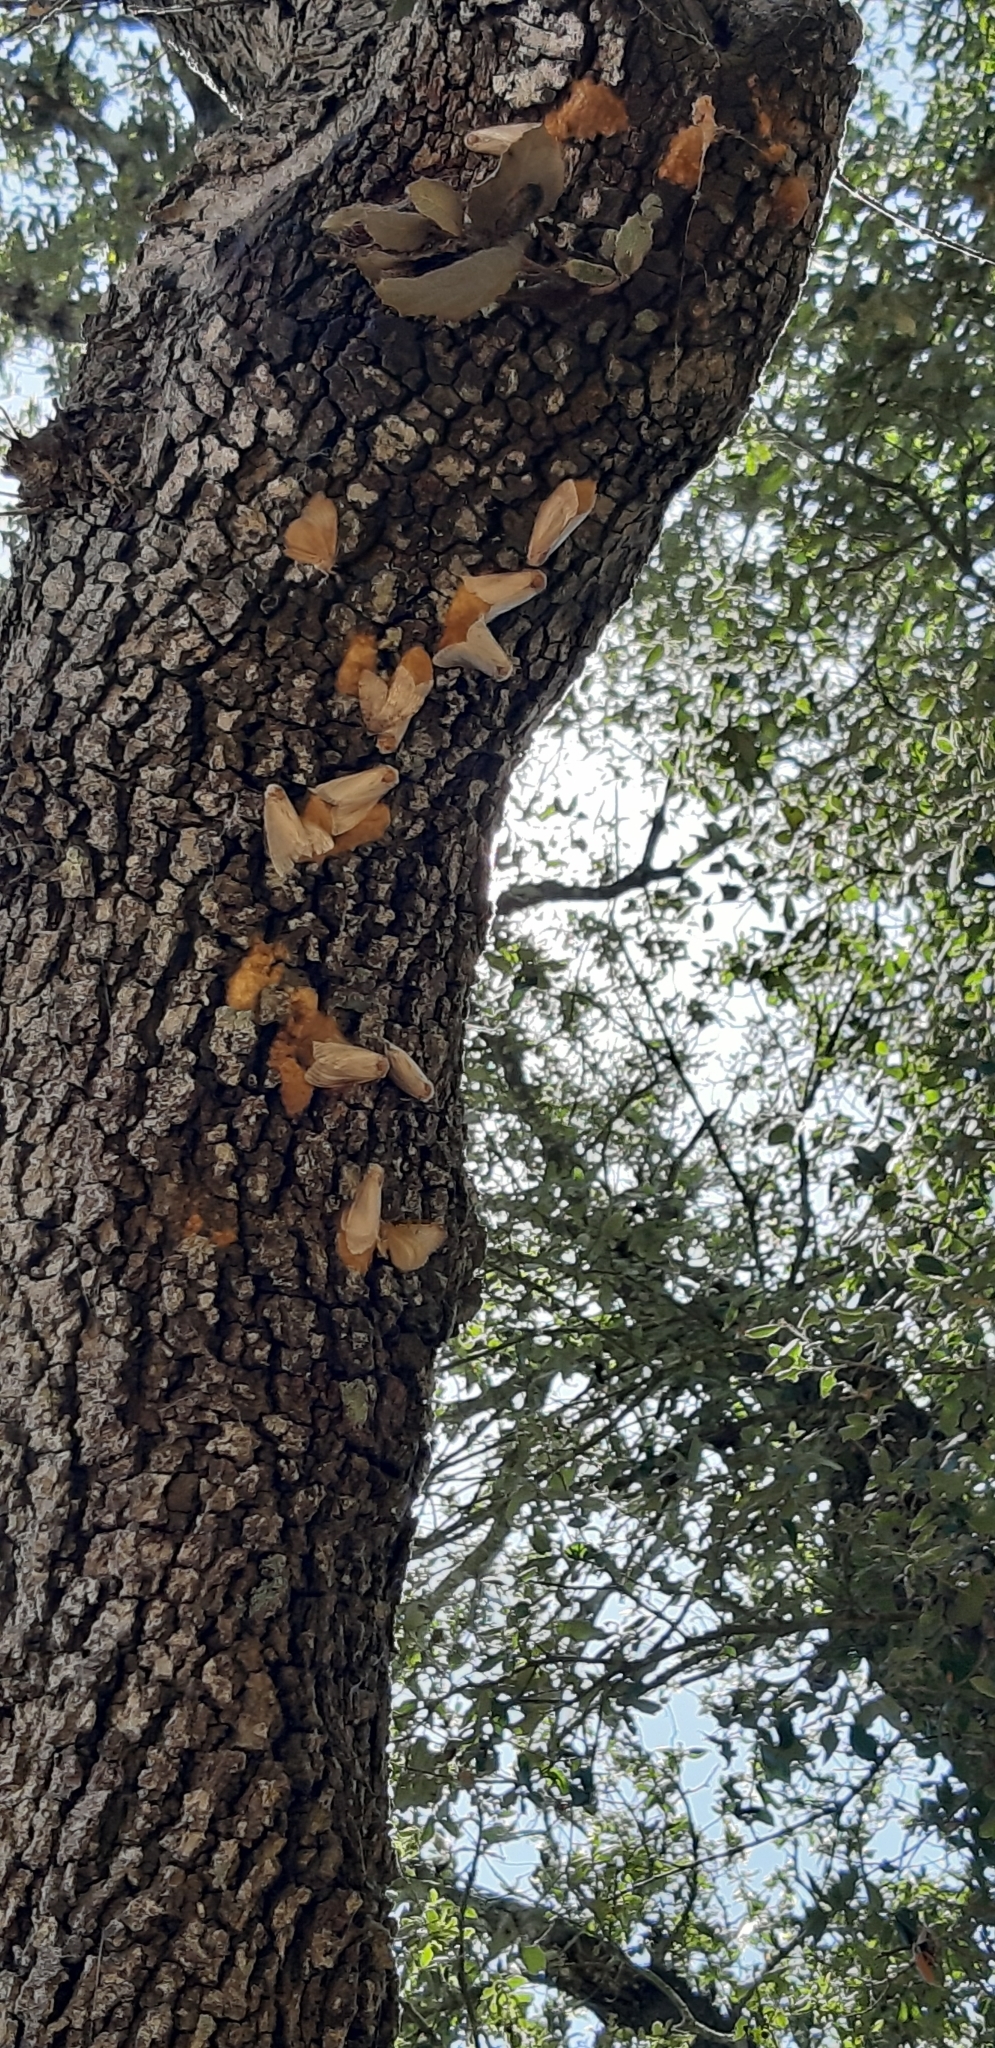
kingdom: Animalia
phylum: Arthropoda
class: Insecta
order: Lepidoptera
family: Erebidae
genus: Lymantria
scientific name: Lymantria dispar
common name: Gypsy moth
